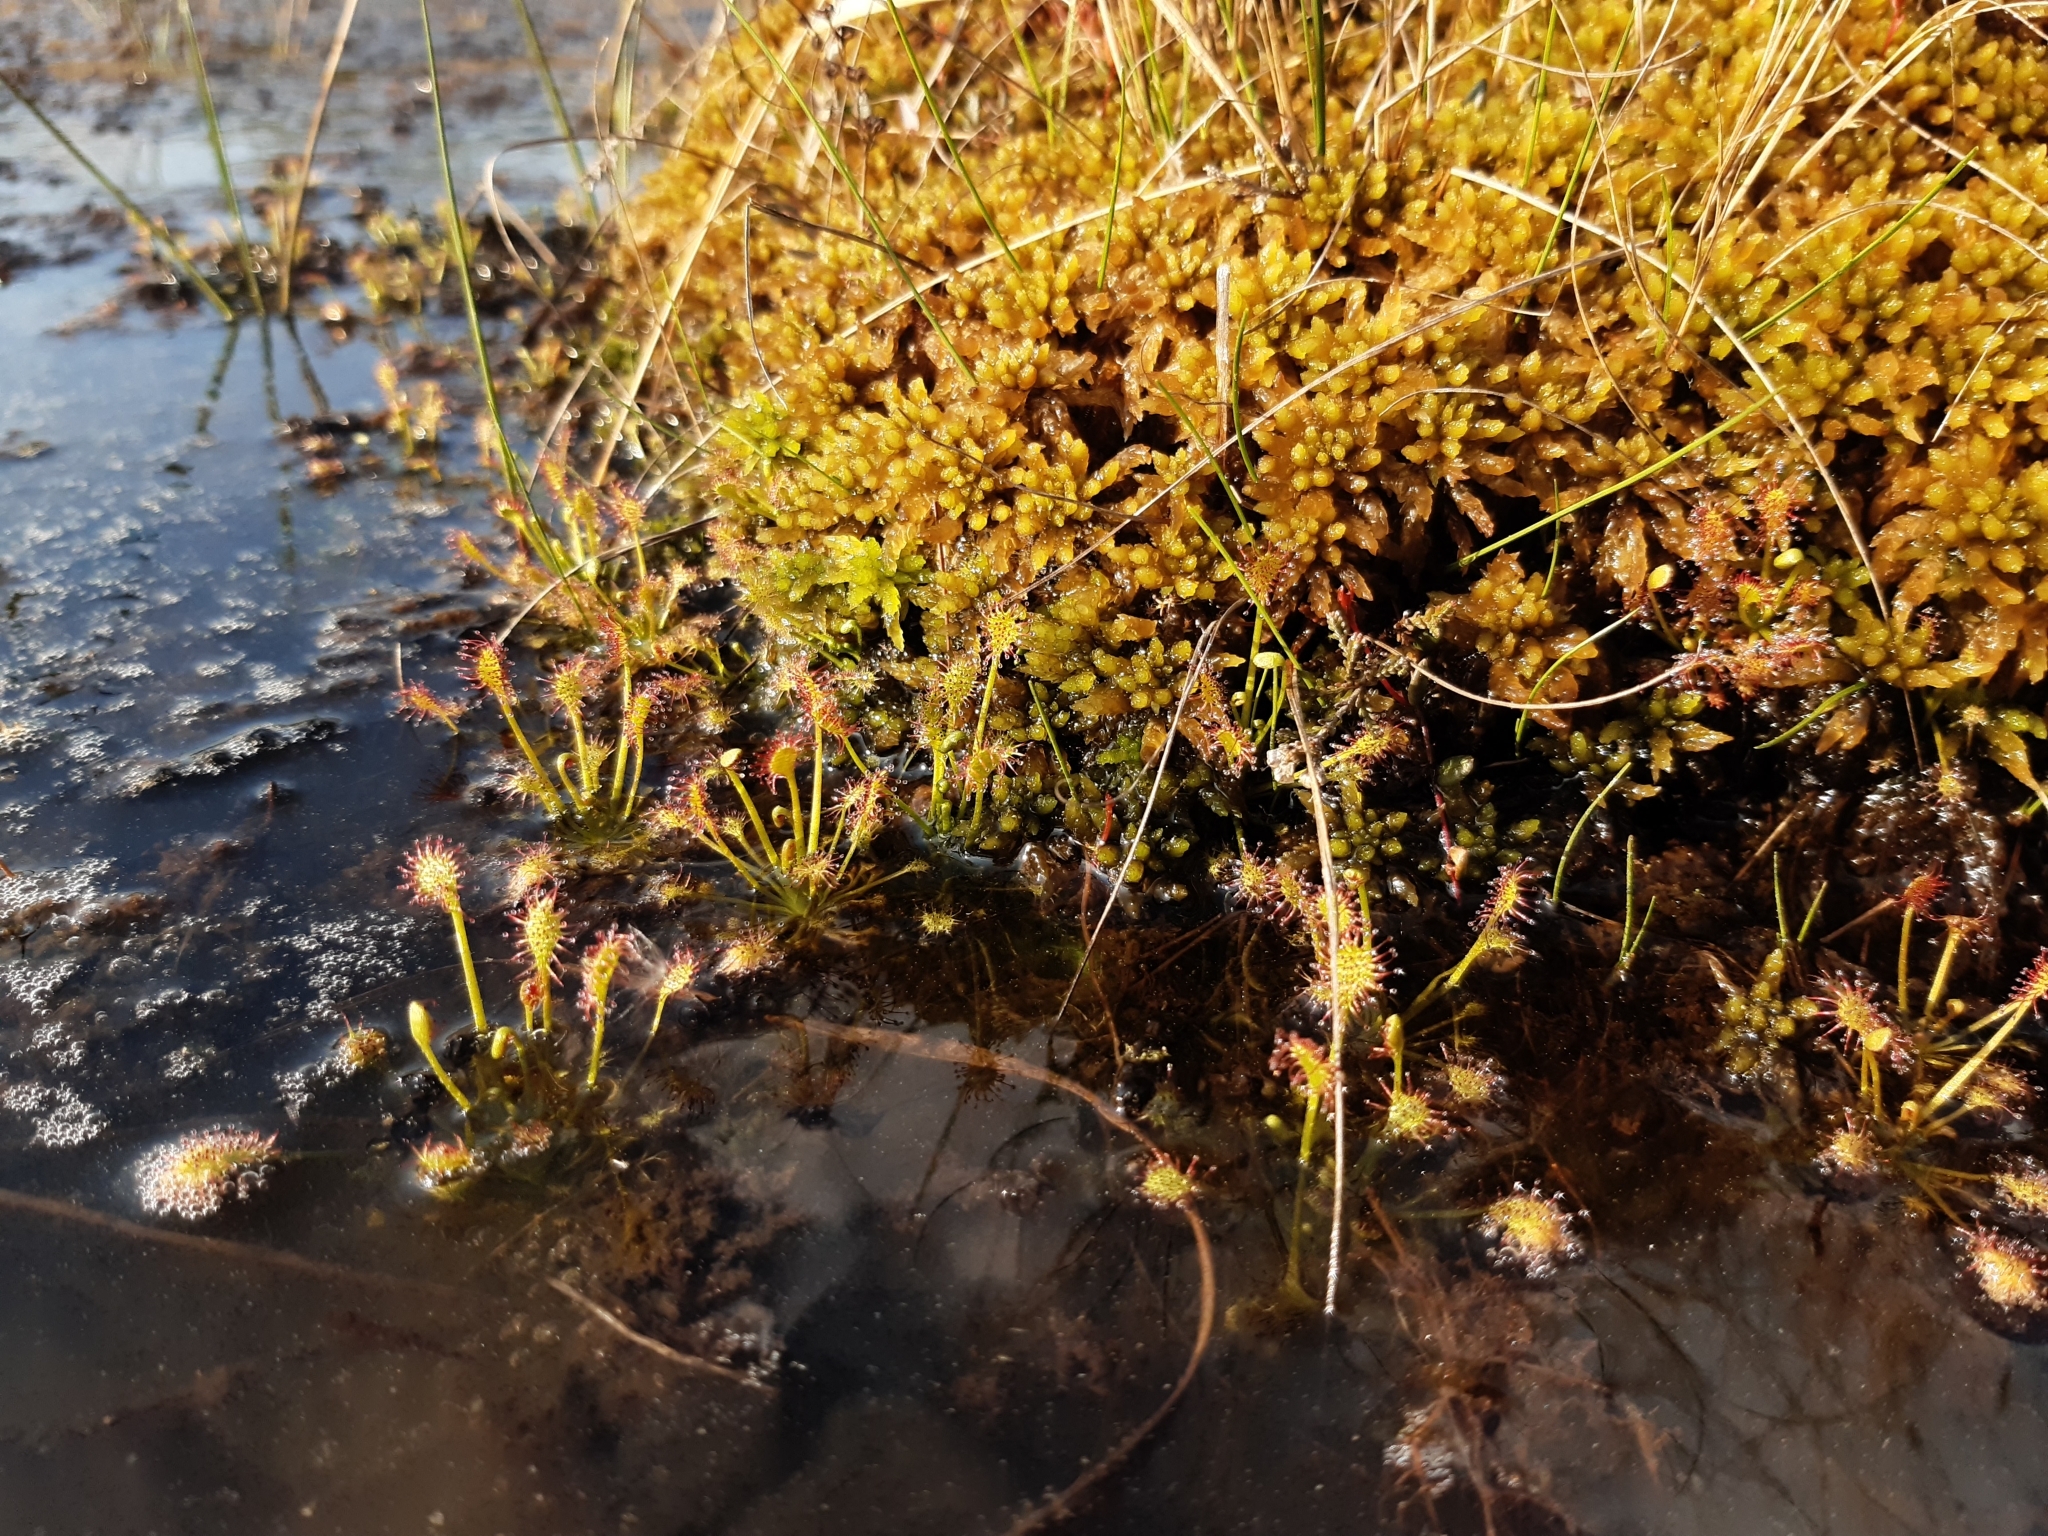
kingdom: Plantae
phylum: Tracheophyta
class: Magnoliopsida
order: Caryophyllales
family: Droseraceae
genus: Drosera
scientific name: Drosera intermedia
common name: Oblong-leaved sundew
